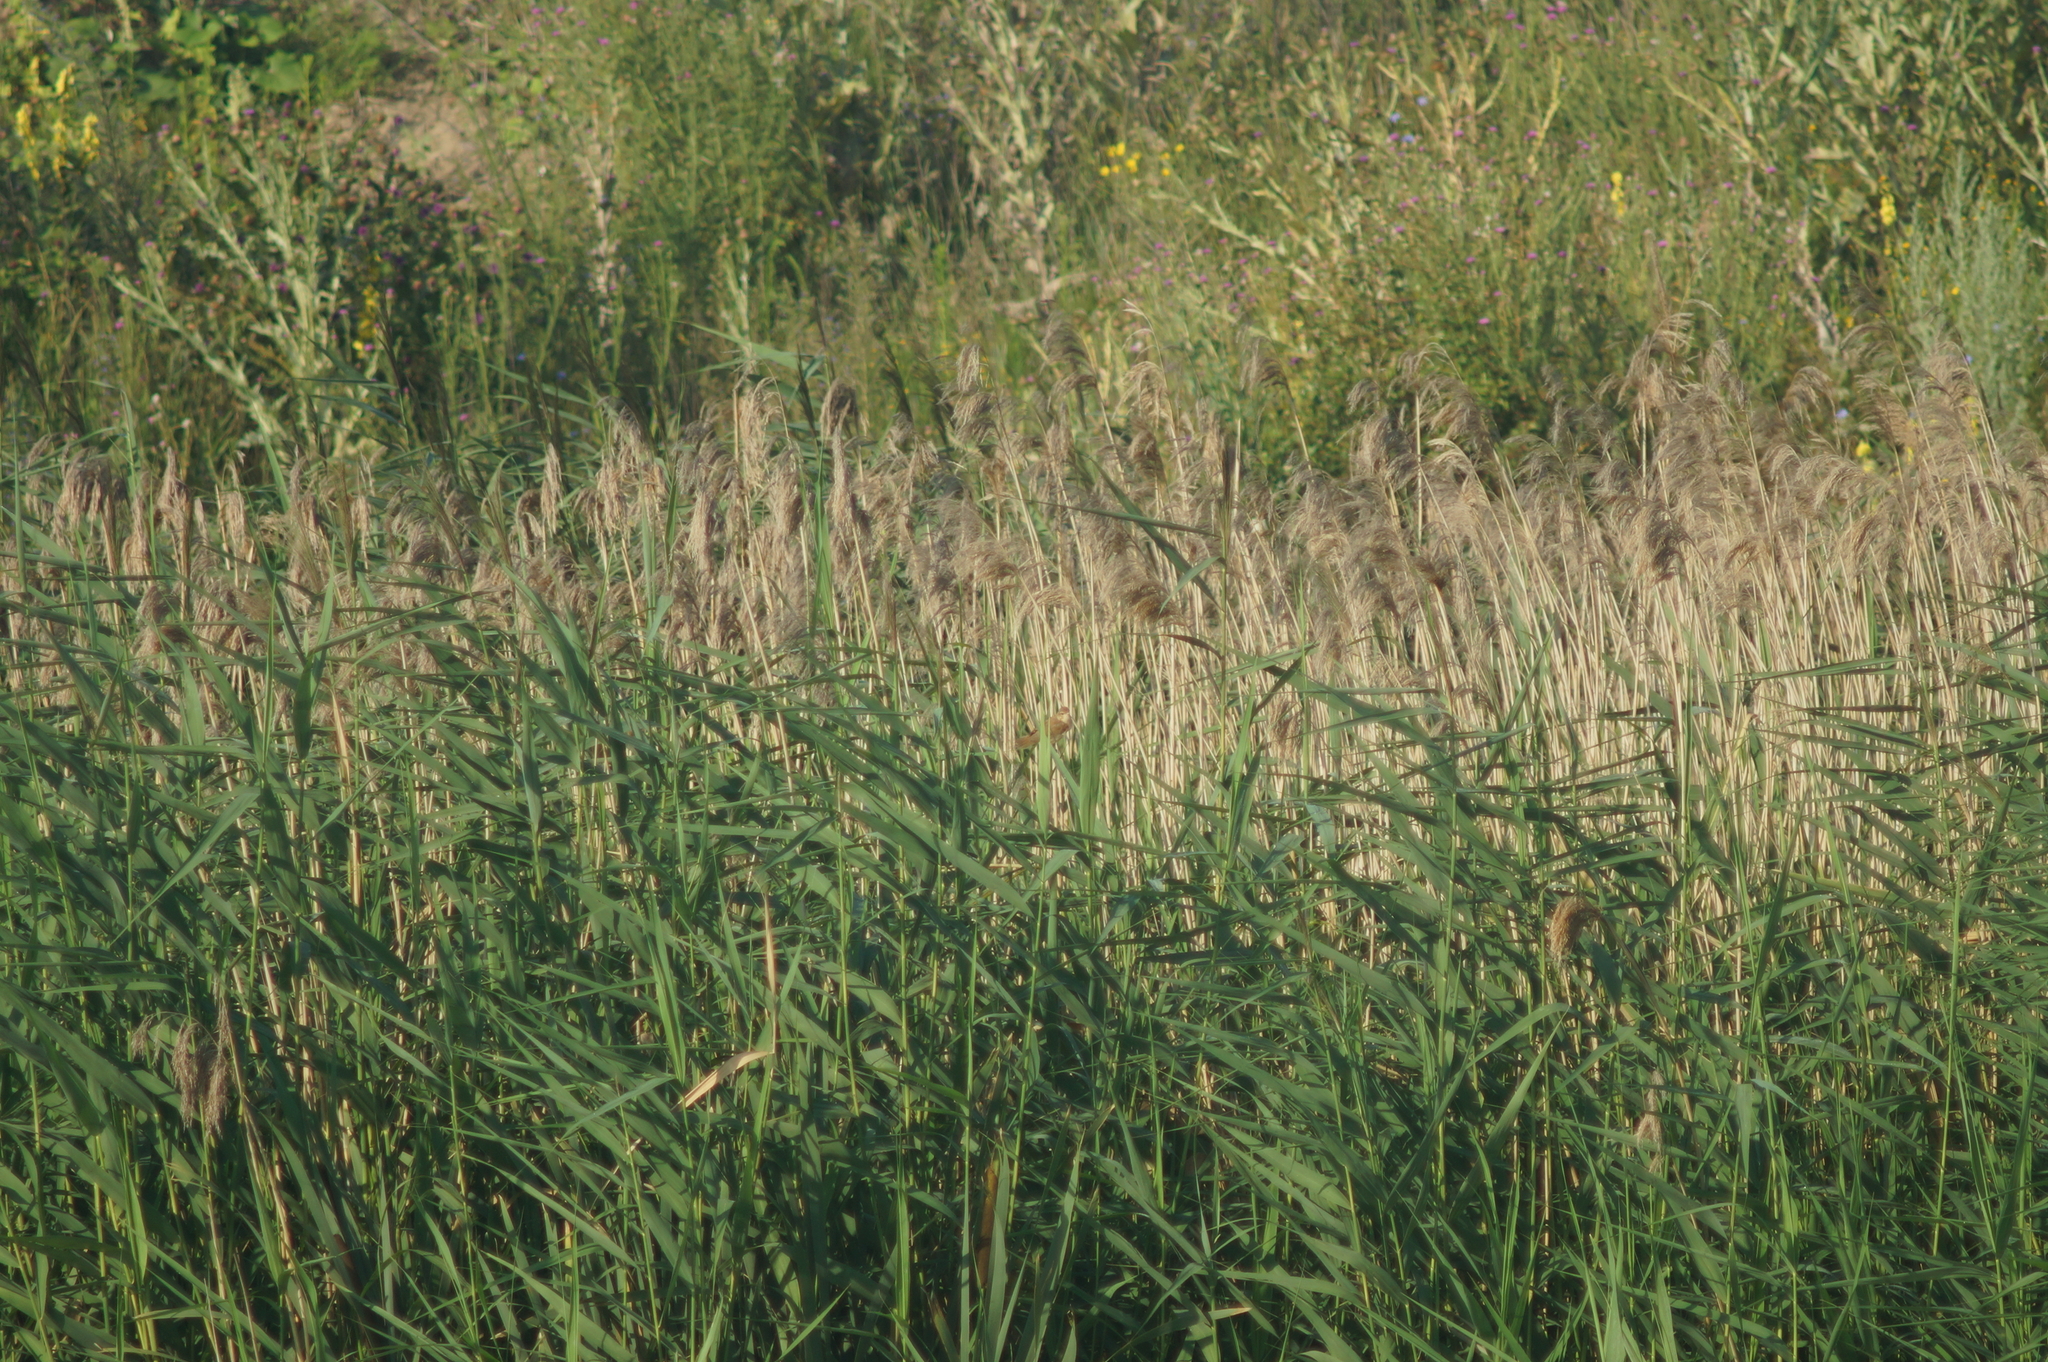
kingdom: Plantae
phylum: Tracheophyta
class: Liliopsida
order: Poales
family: Poaceae
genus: Phragmites
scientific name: Phragmites australis
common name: Common reed
